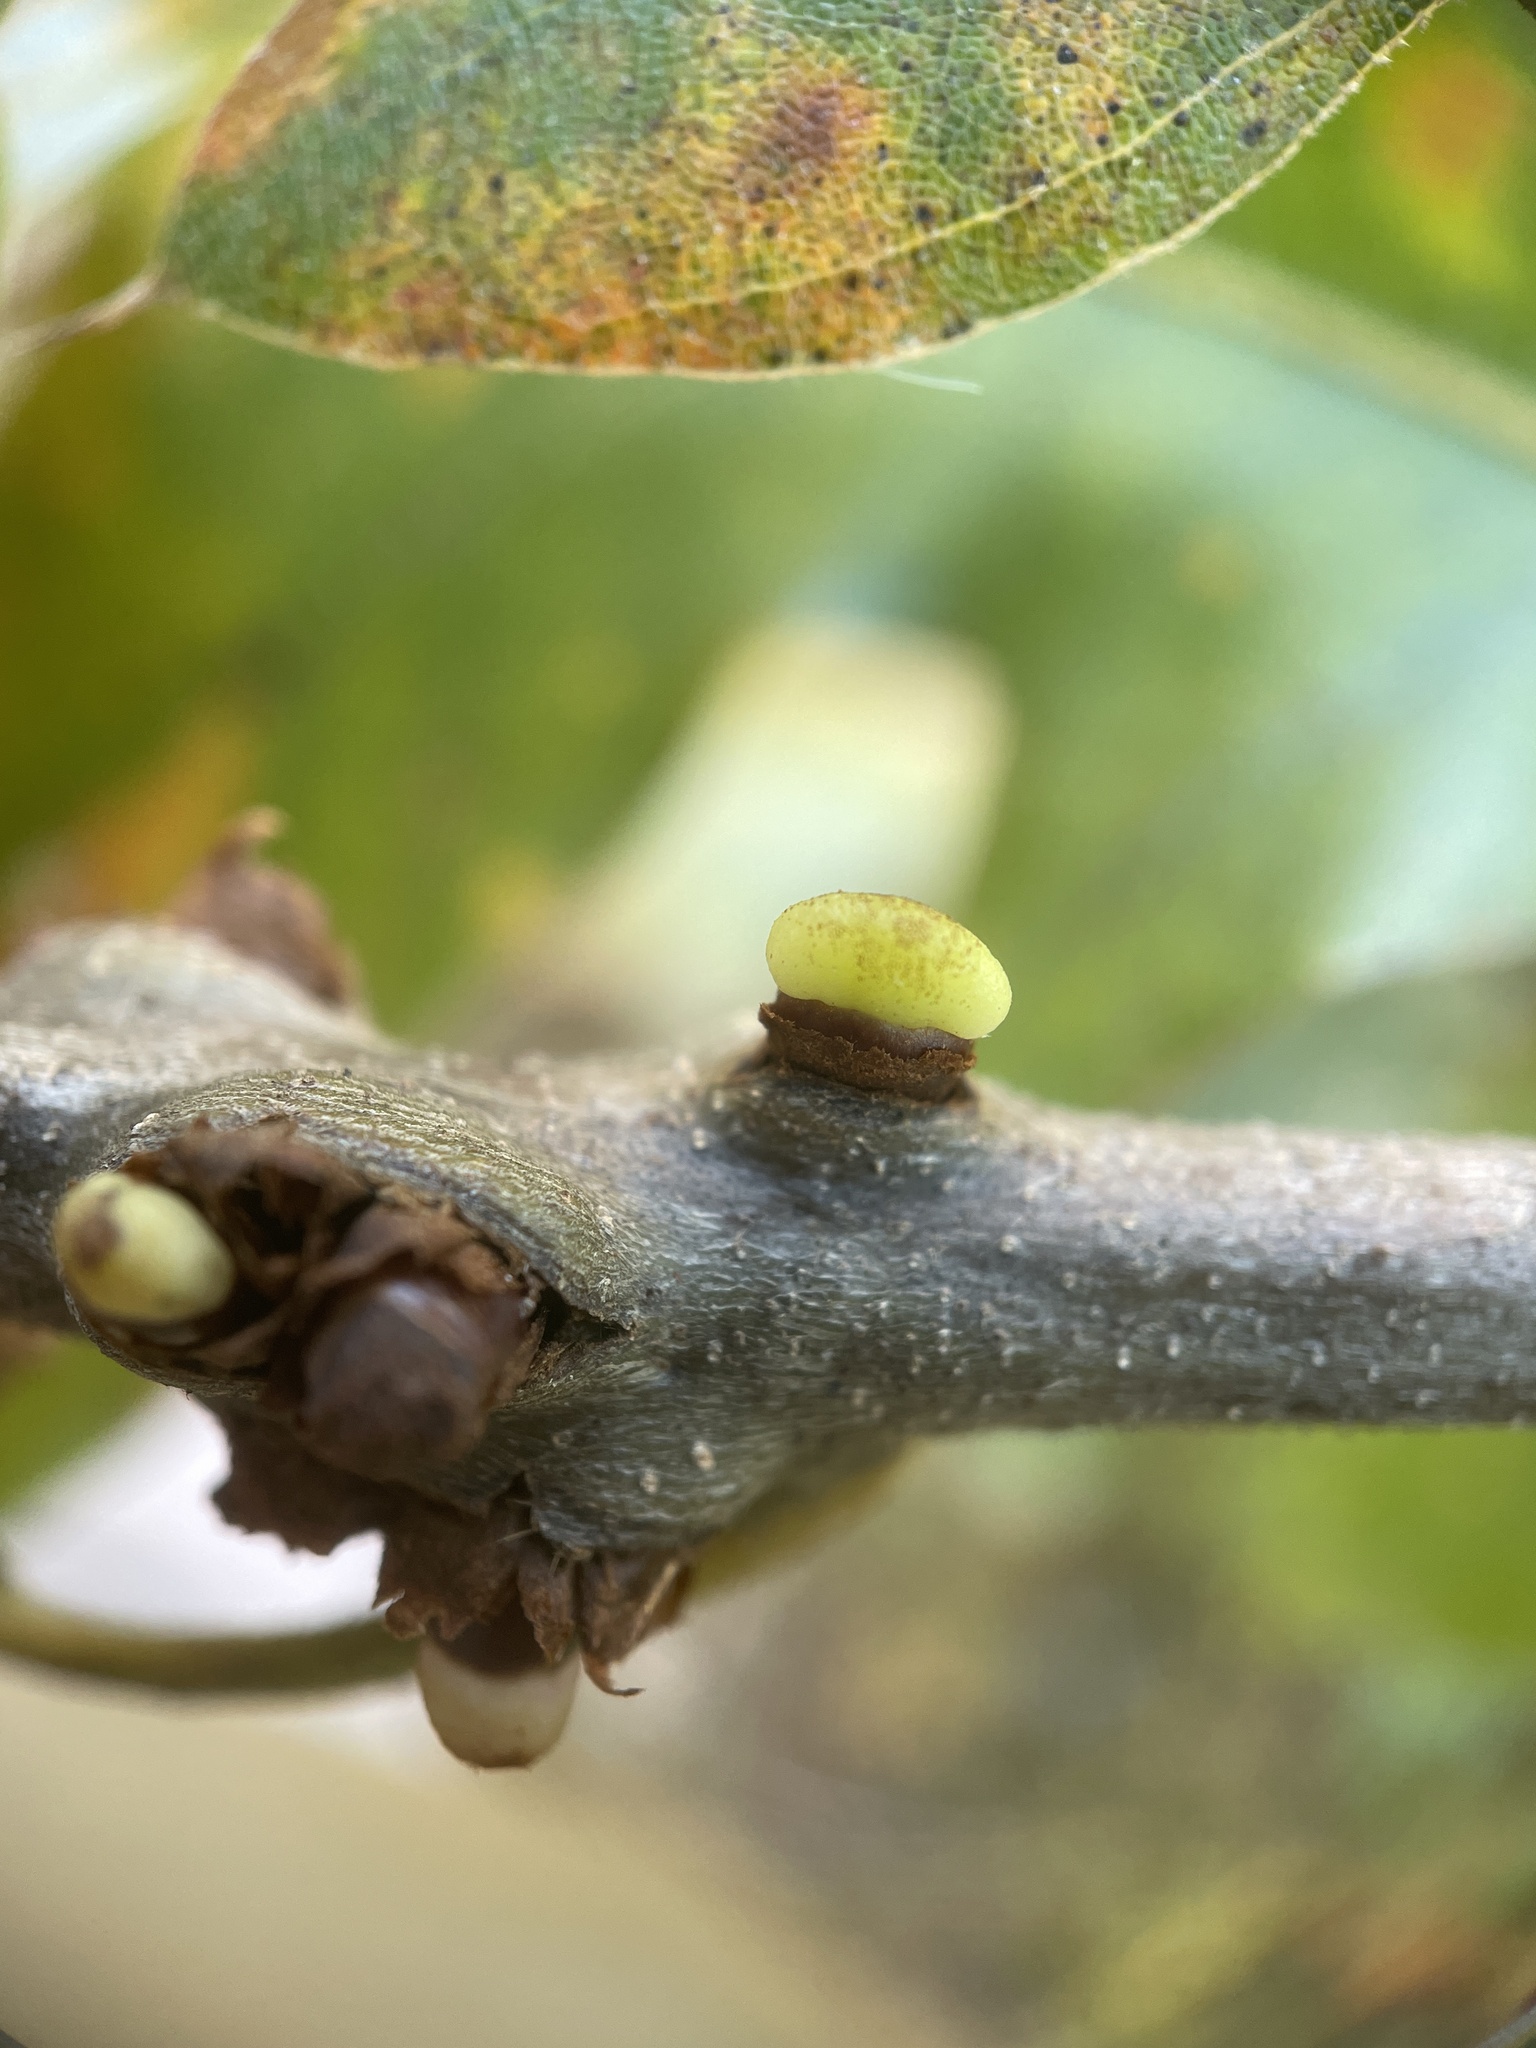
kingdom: Animalia
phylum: Arthropoda
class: Insecta
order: Hymenoptera
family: Cynipidae
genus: Callirhytis
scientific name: Callirhytis
